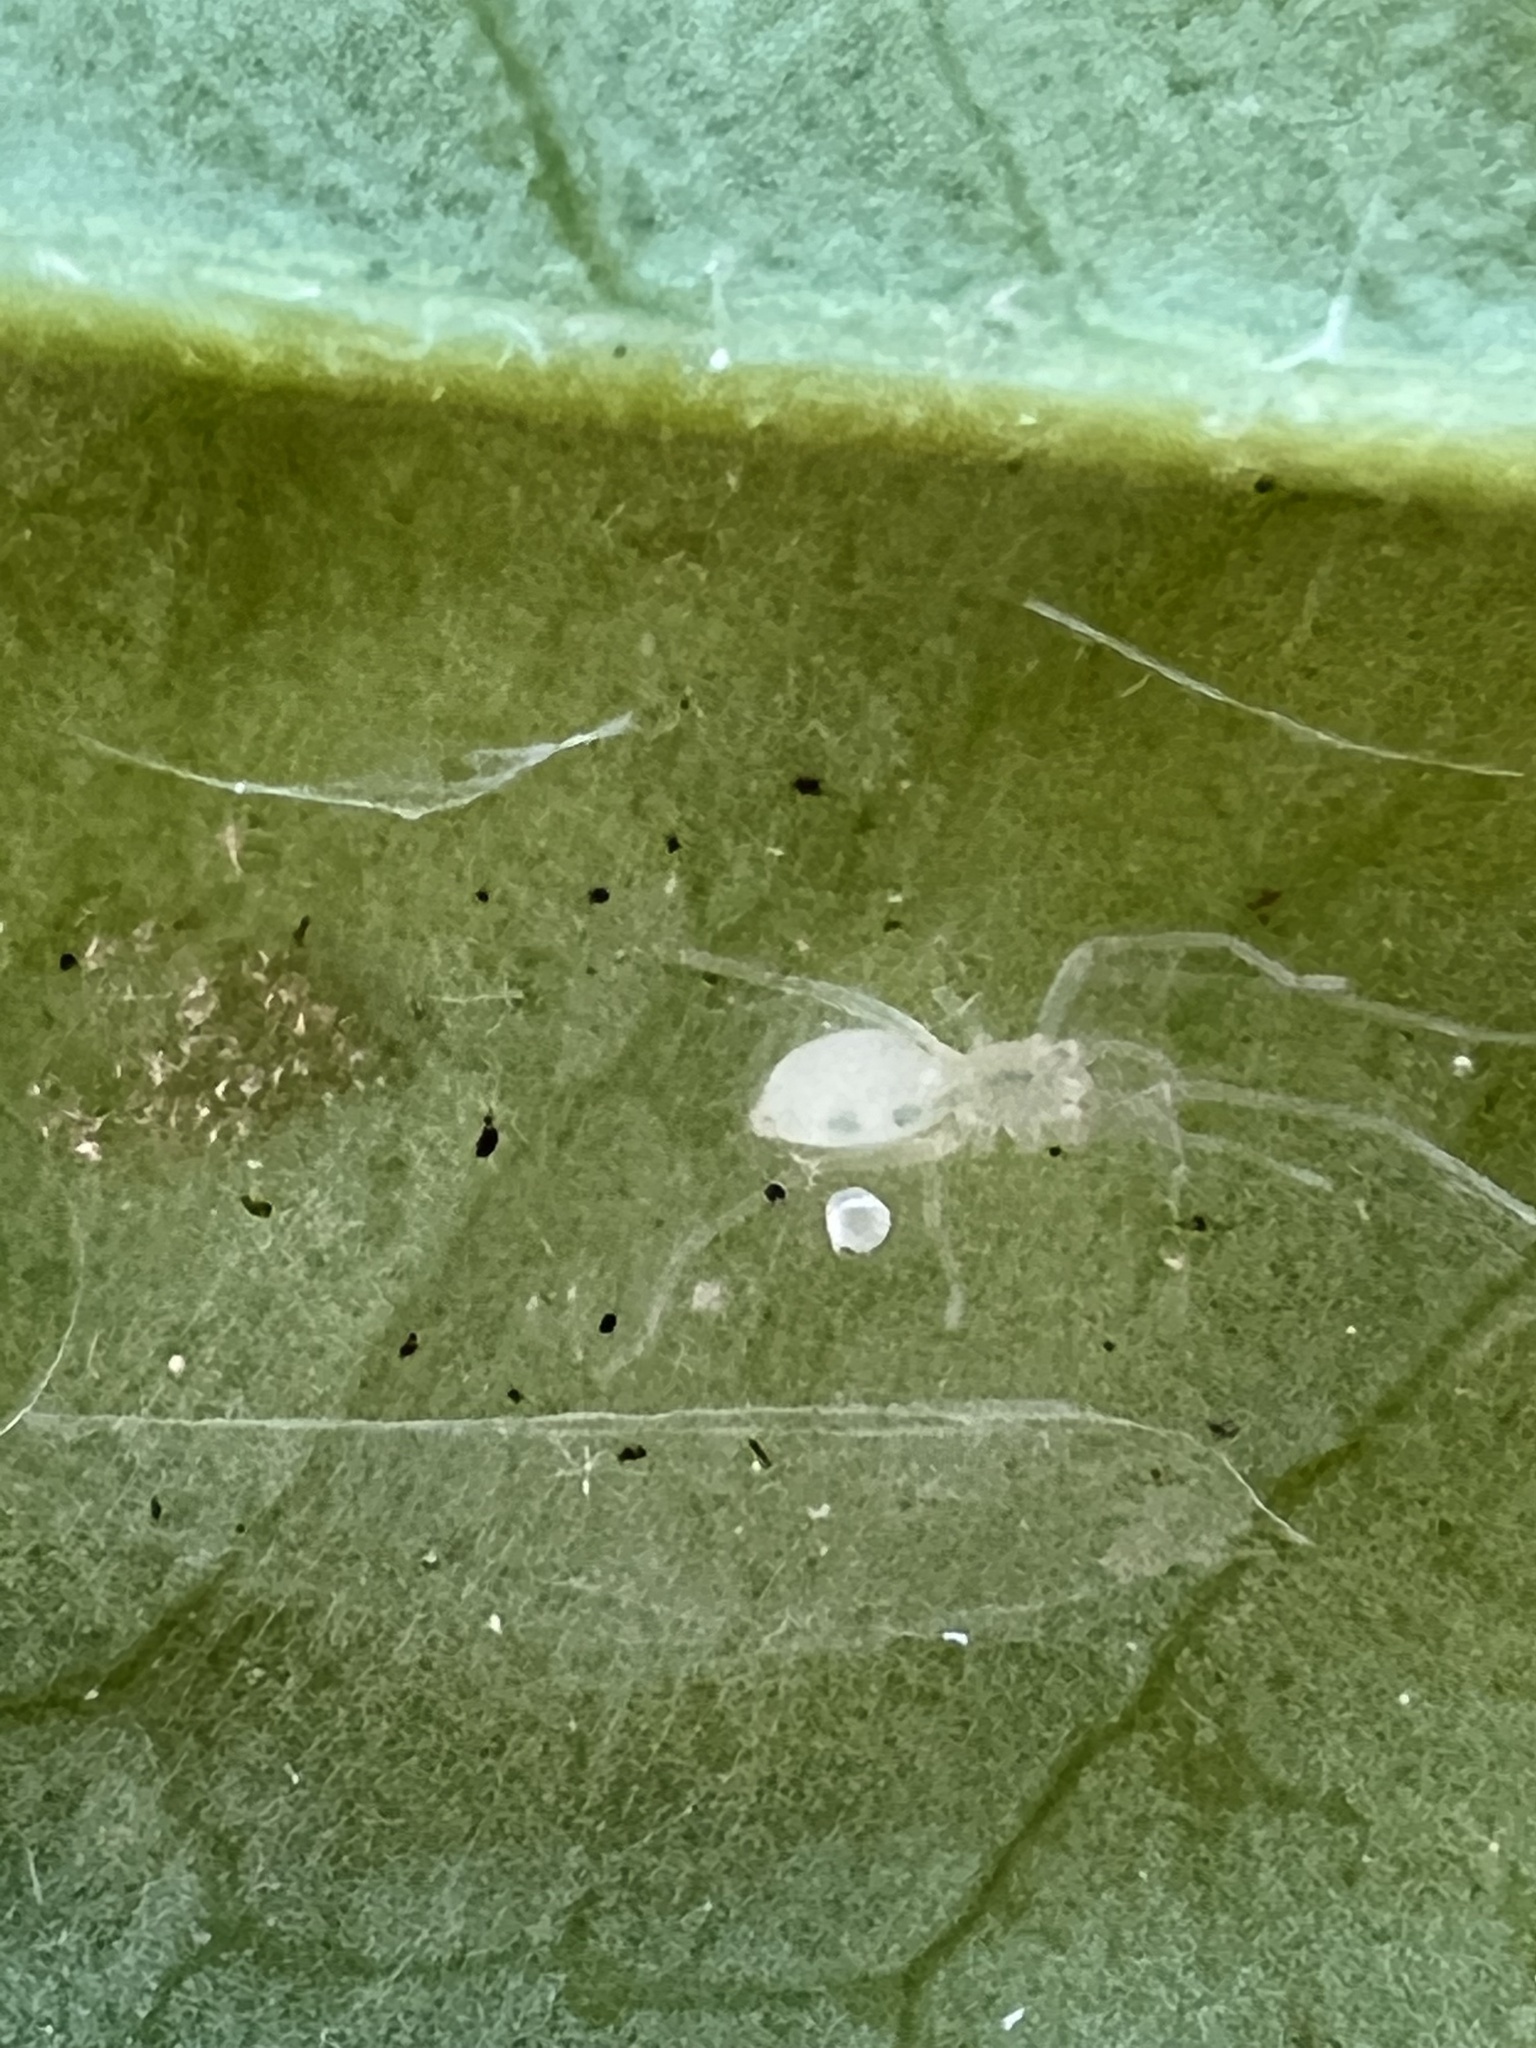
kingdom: Animalia
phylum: Arthropoda
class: Arachnida
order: Araneae
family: Anyphaenidae
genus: Wulfila
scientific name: Wulfila albens
